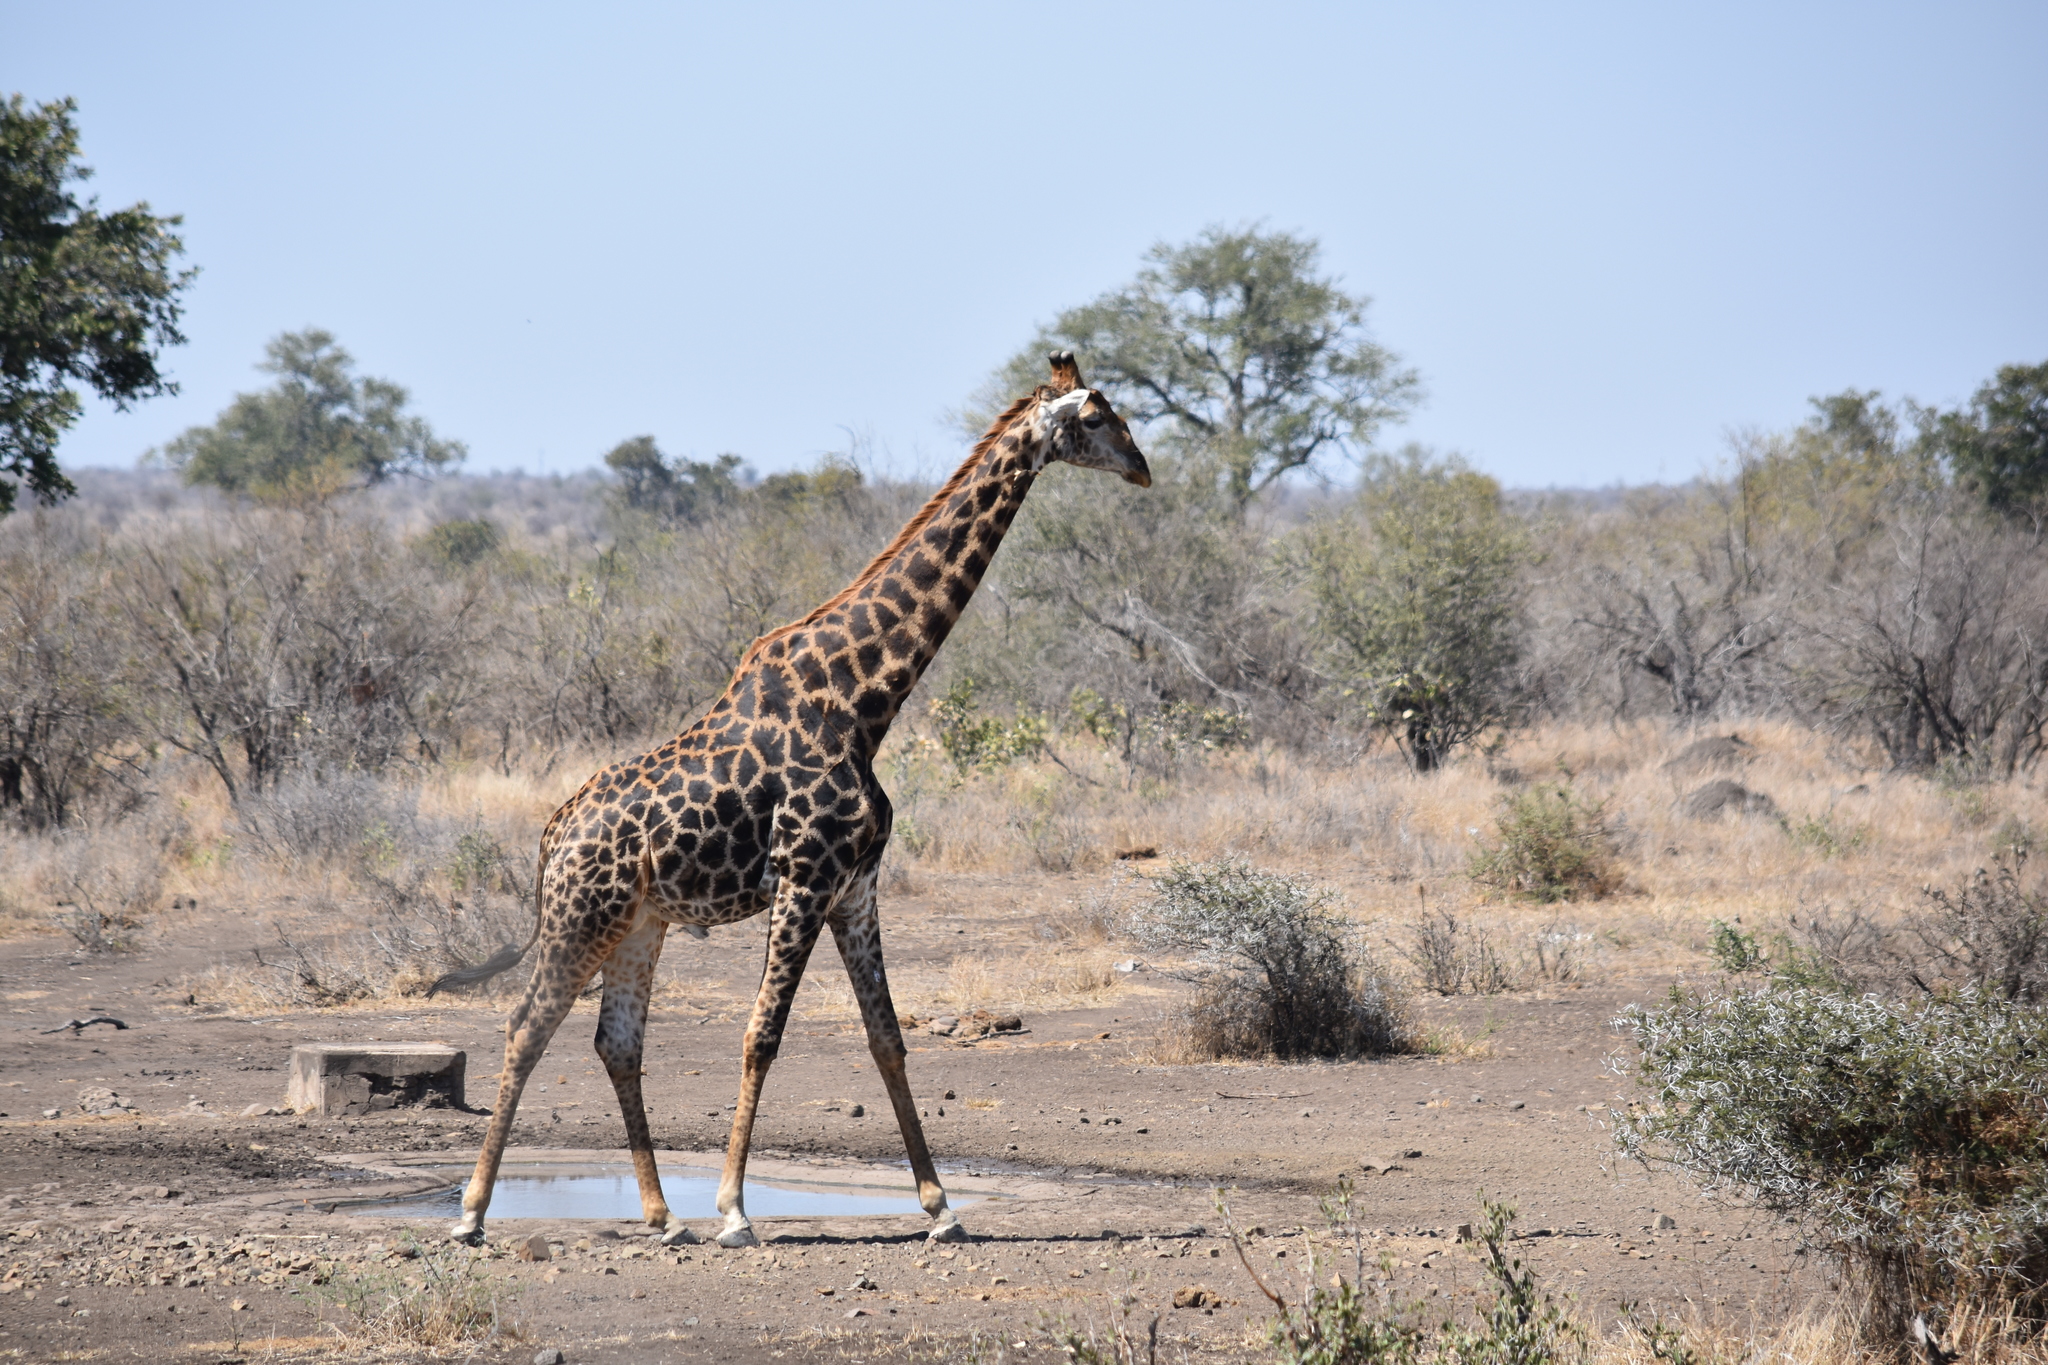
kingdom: Animalia
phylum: Chordata
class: Mammalia
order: Artiodactyla
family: Giraffidae
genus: Giraffa
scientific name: Giraffa giraffa
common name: Southern giraffe
